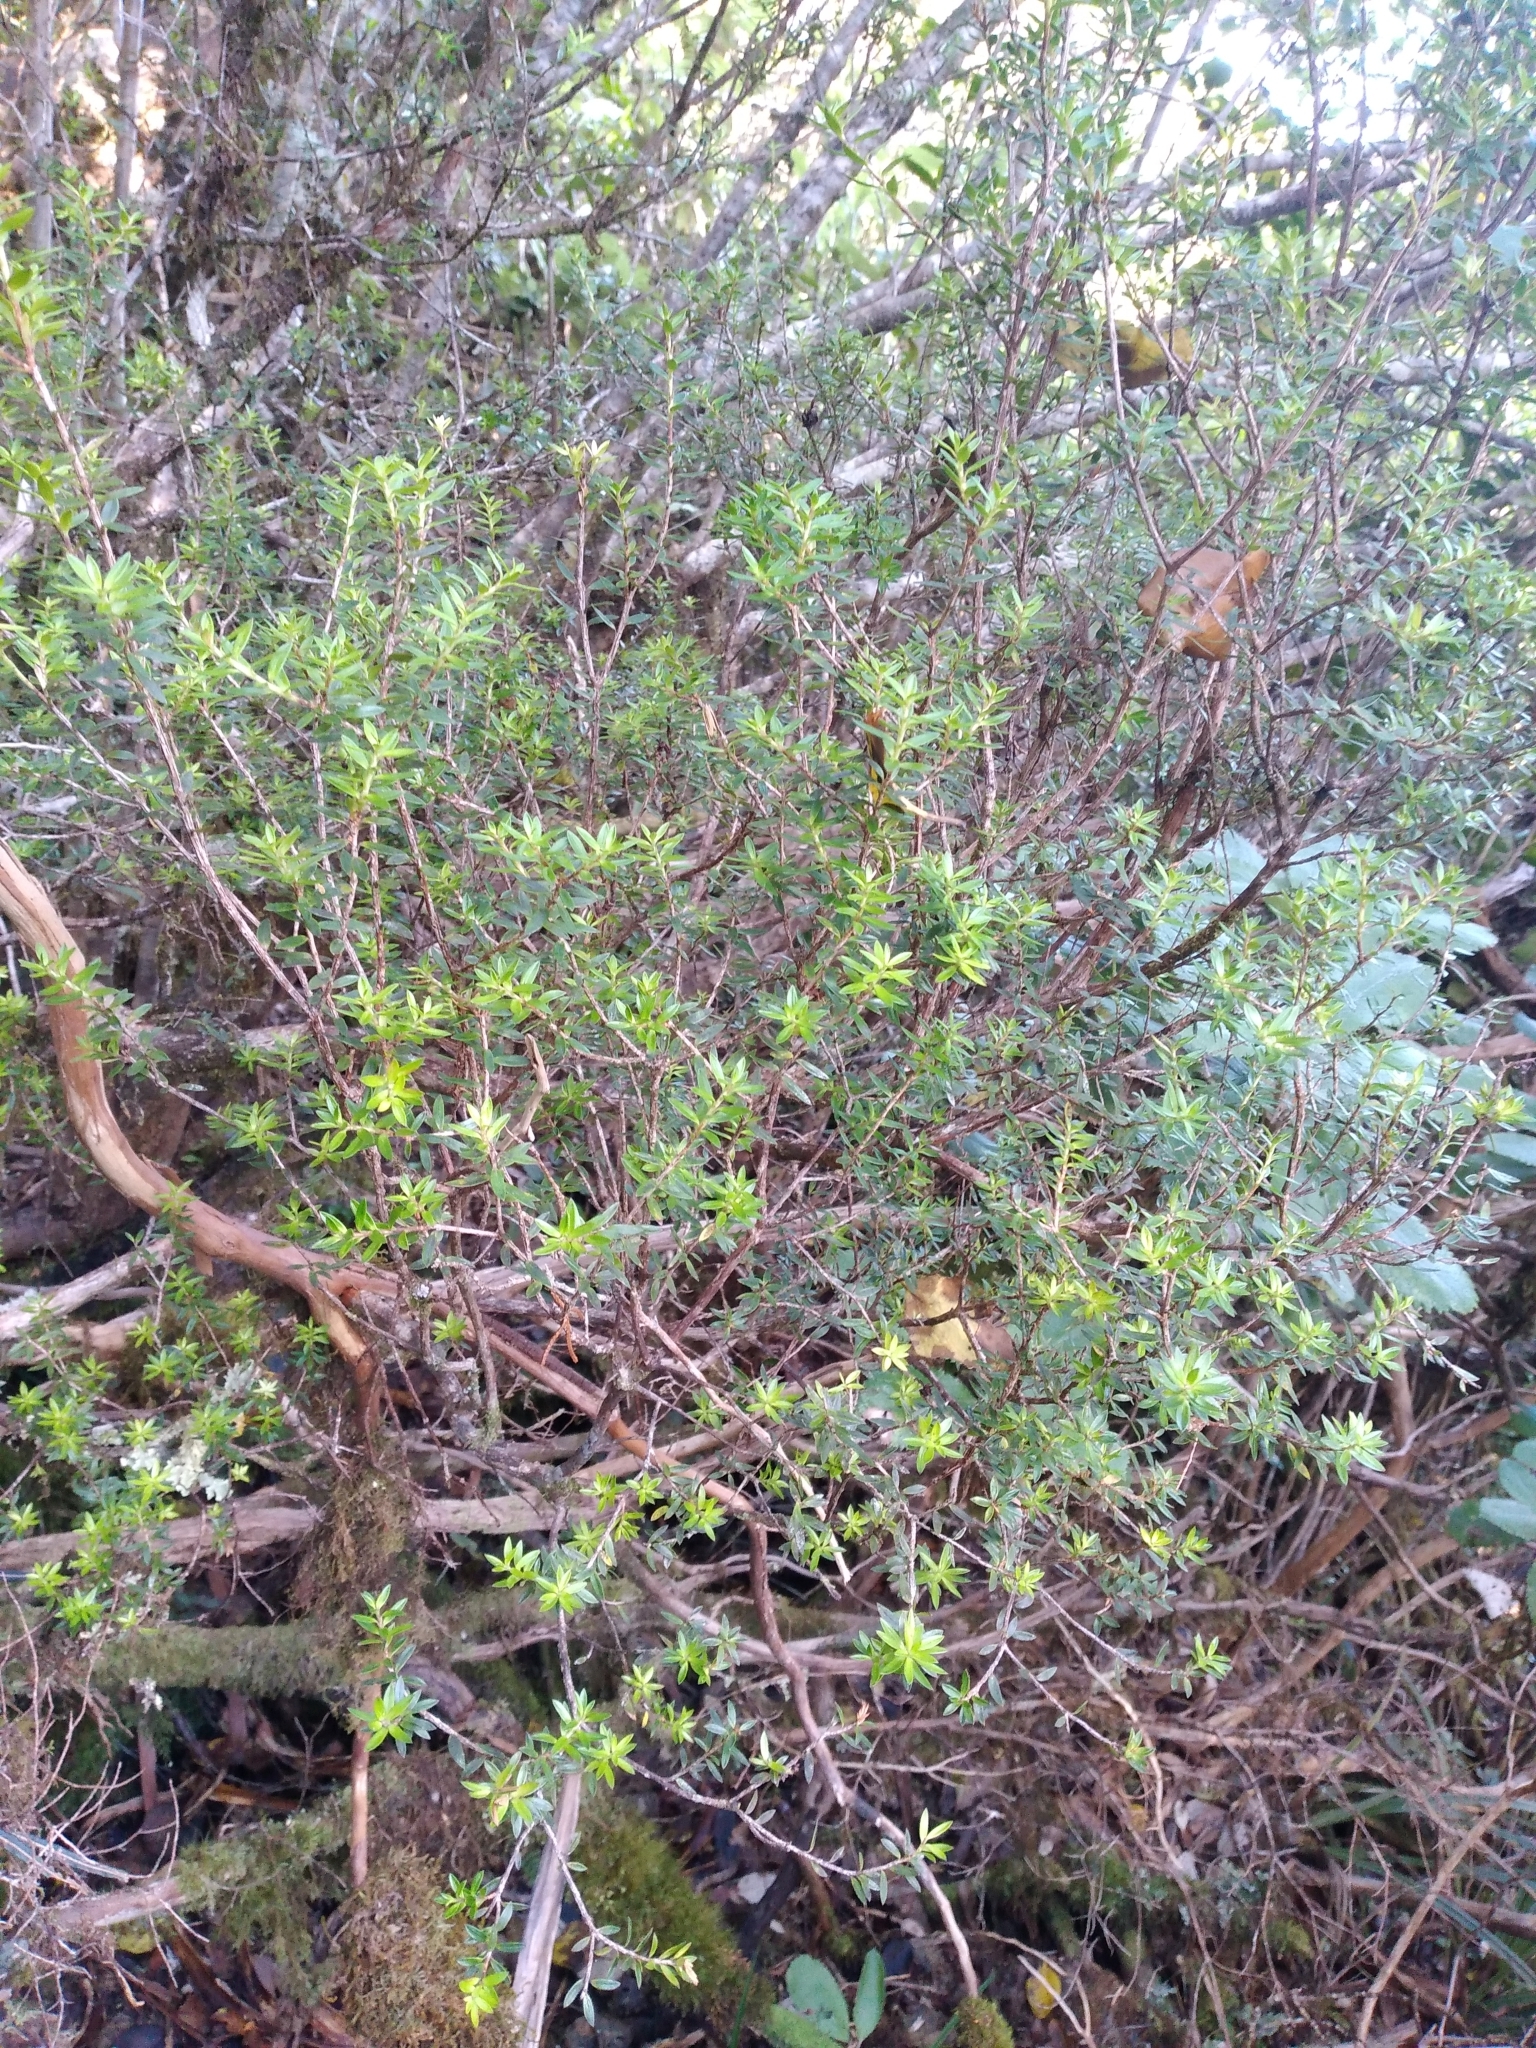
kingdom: Plantae
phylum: Tracheophyta
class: Magnoliopsida
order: Ericales
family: Ericaceae
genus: Archeria
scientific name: Archeria traversii
